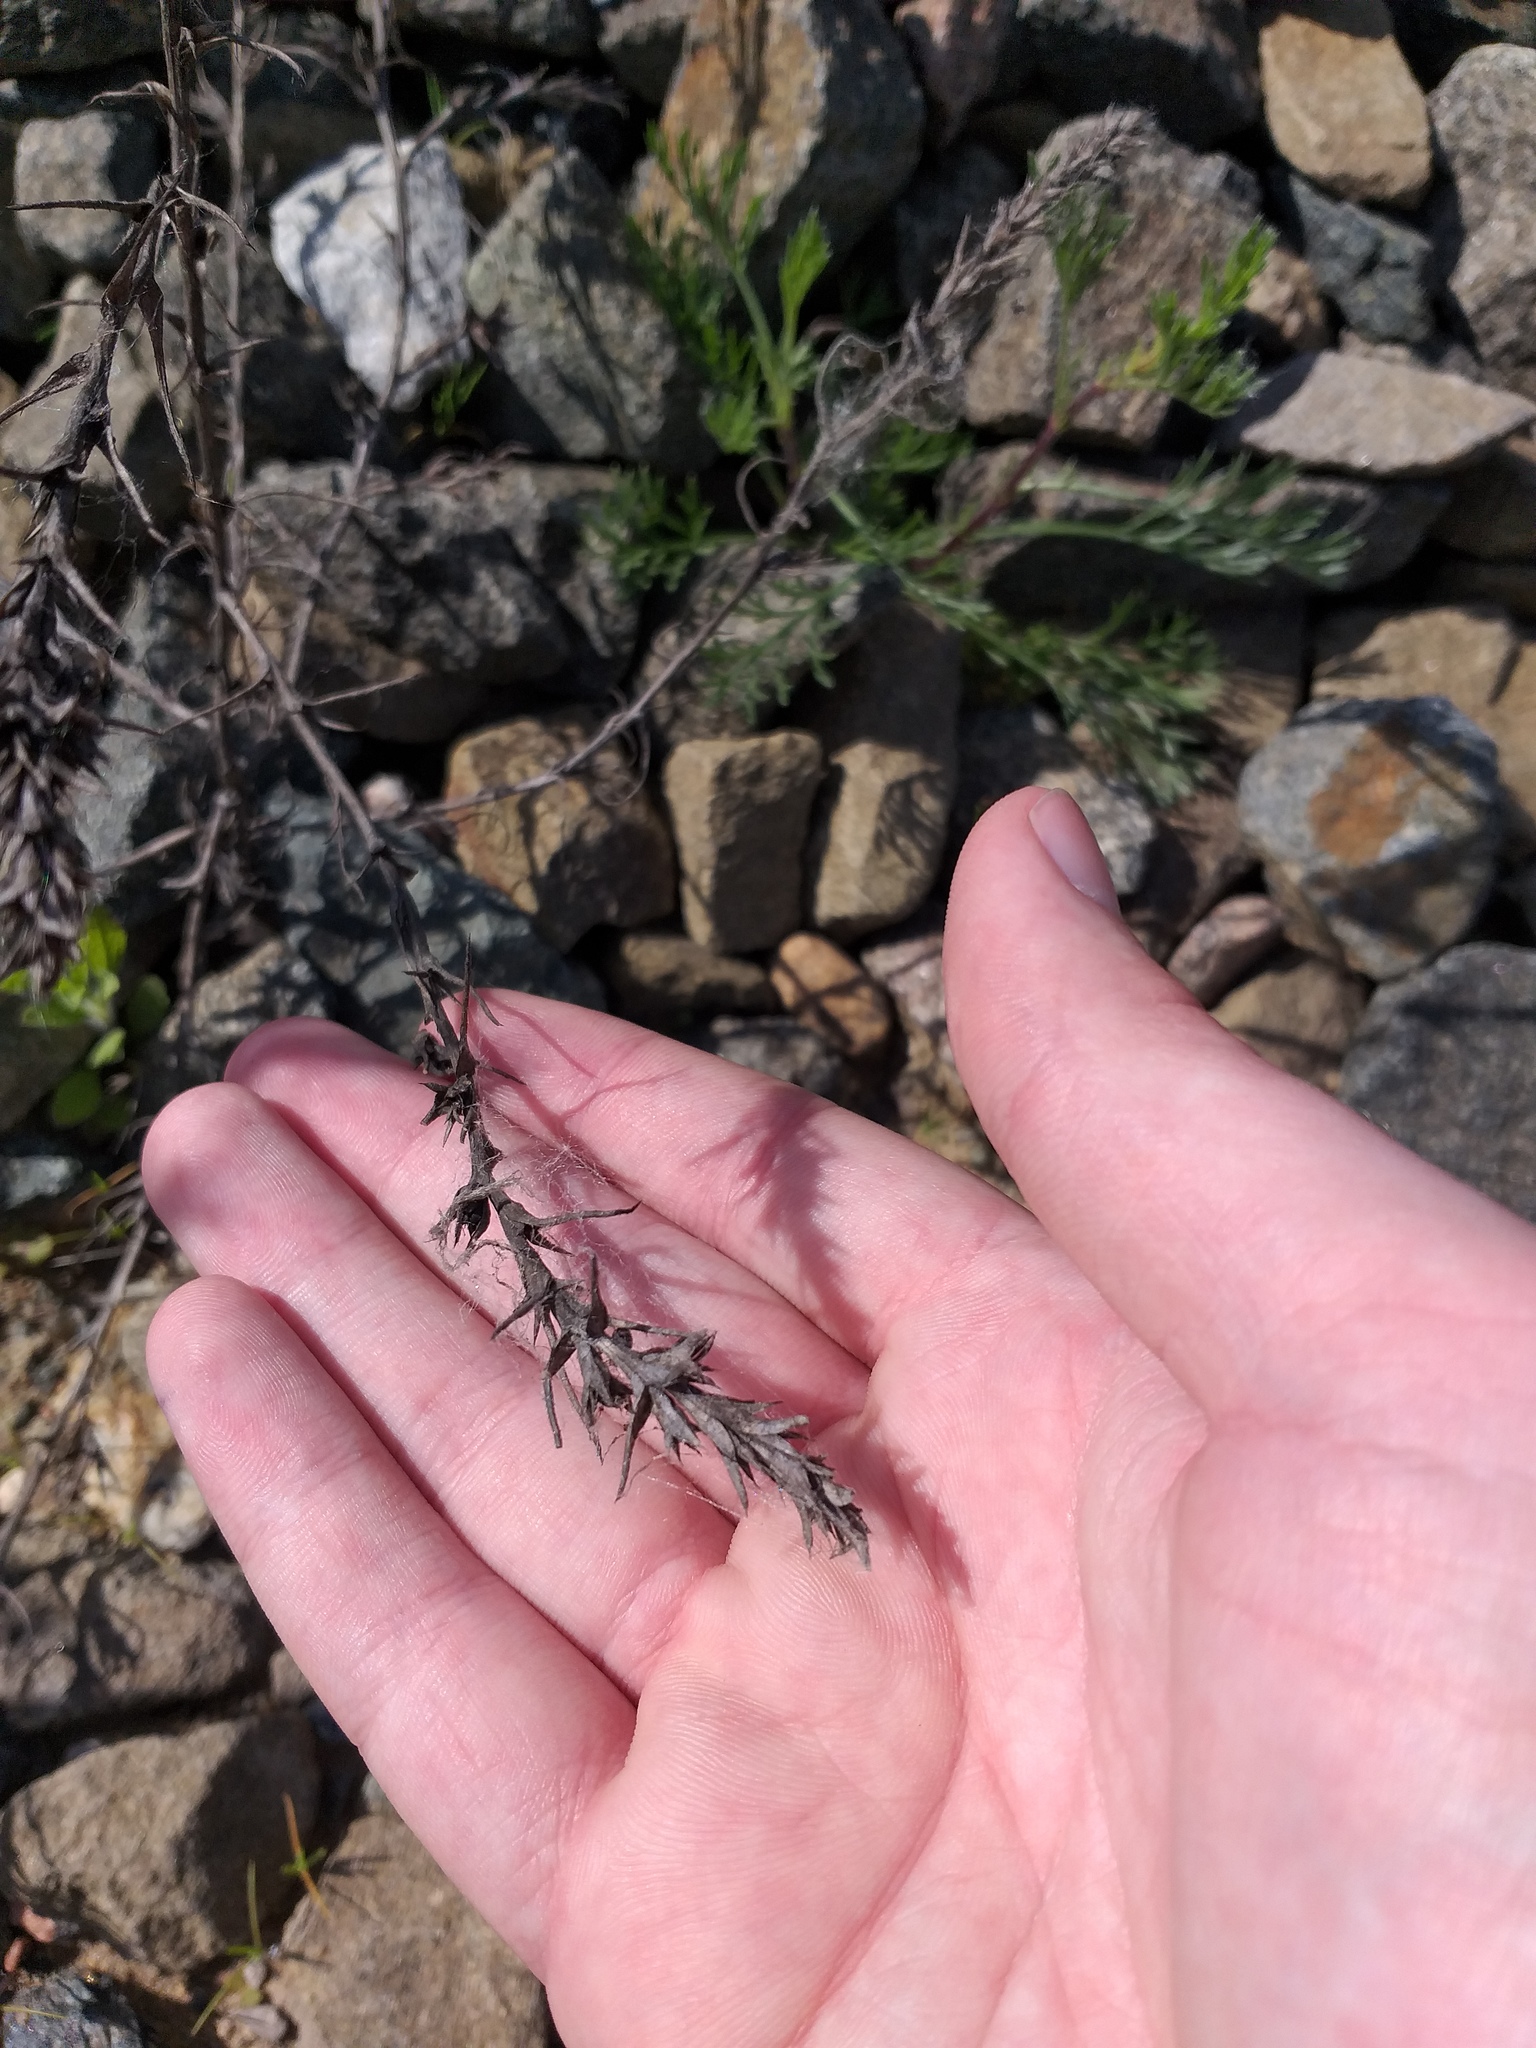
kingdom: Plantae
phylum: Tracheophyta
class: Magnoliopsida
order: Caryophyllales
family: Amaranthaceae
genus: Salsola
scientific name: Salsola collina
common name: Tumbleweed
